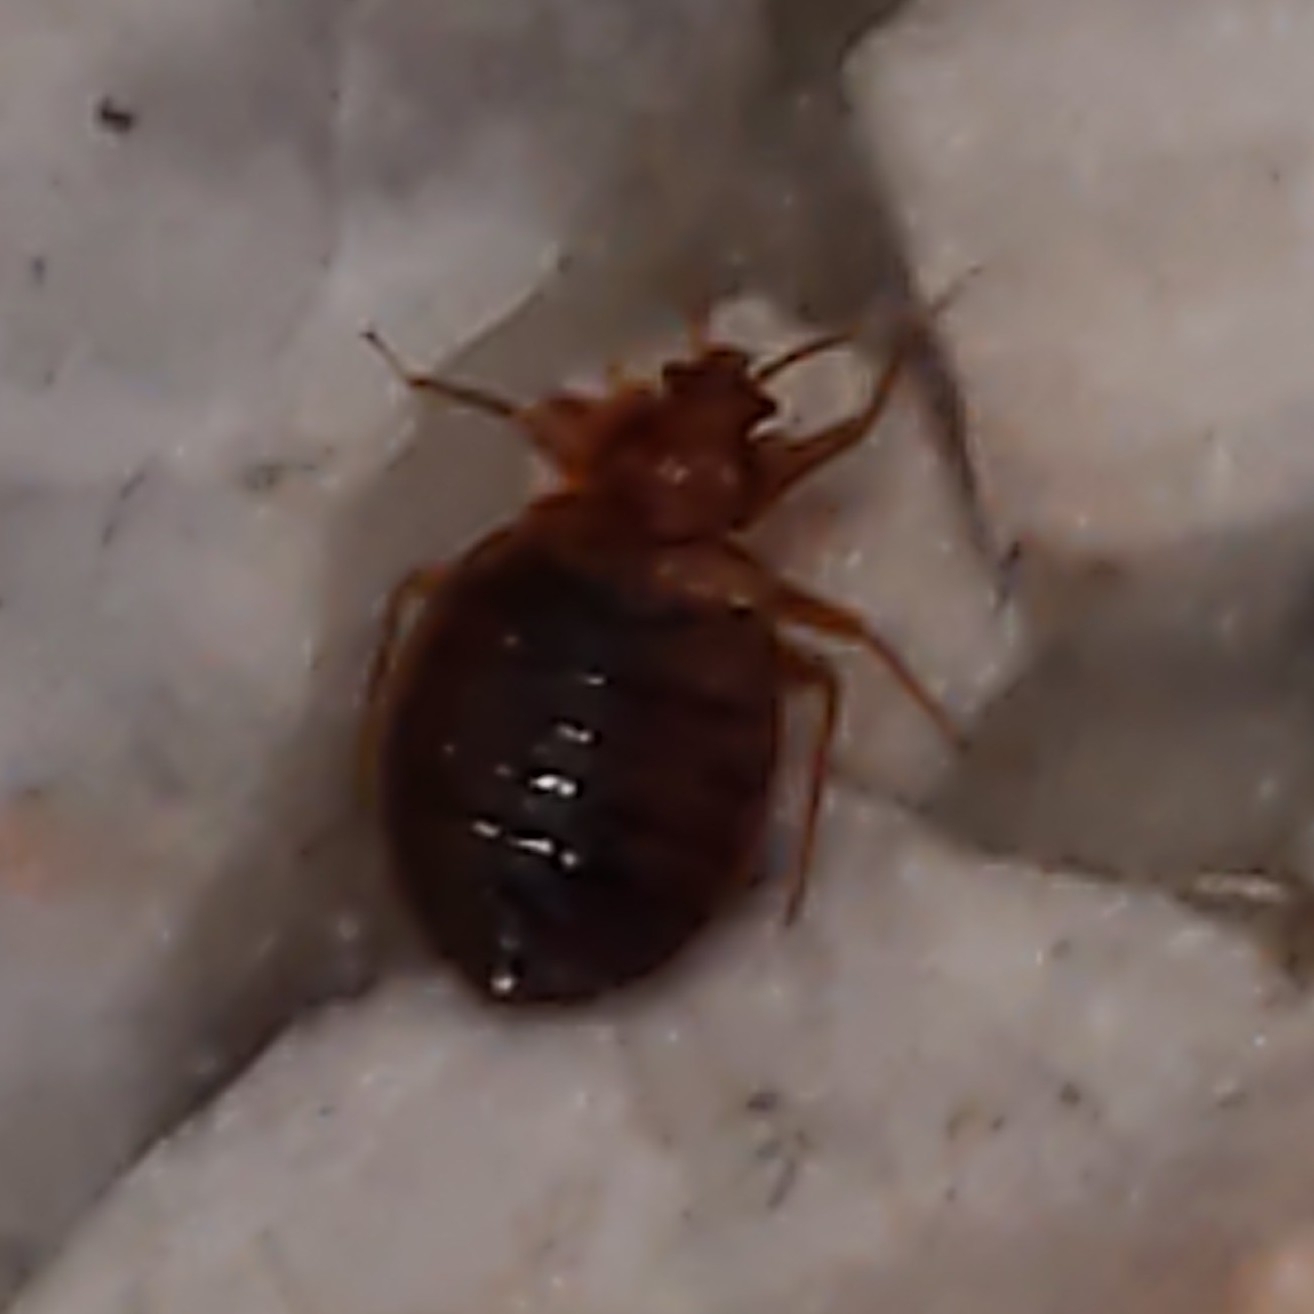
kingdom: Animalia
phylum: Arthropoda
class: Insecta
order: Hemiptera
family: Cimicidae
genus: Cimex
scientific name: Cimex lectularius
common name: Bed bug
